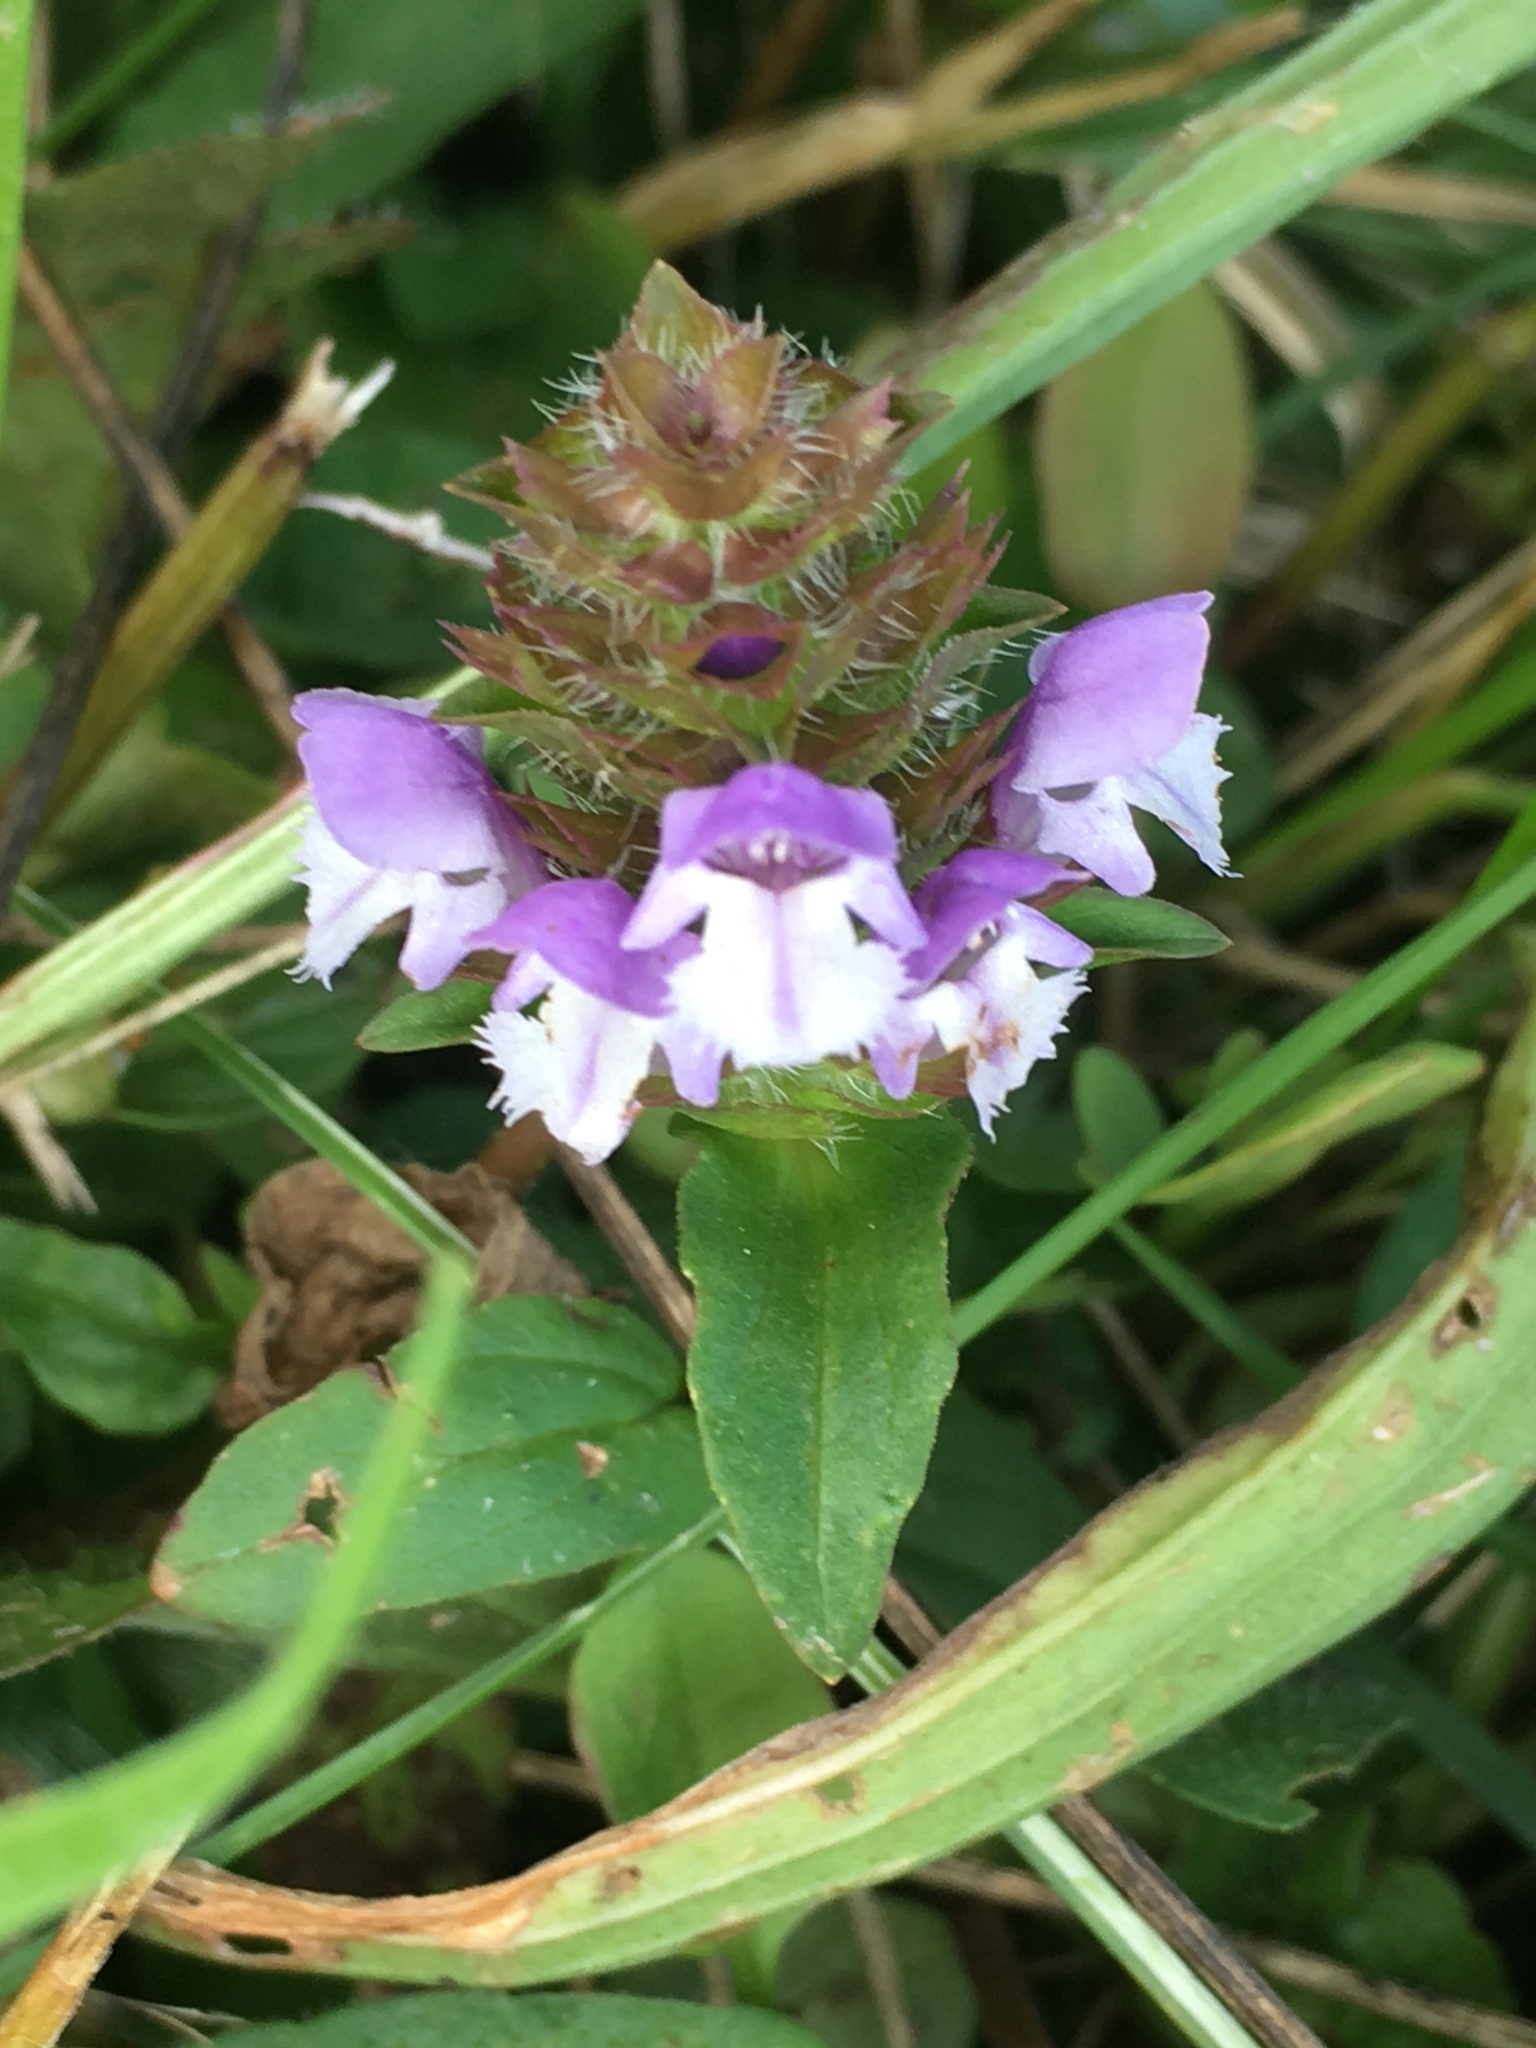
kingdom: Plantae
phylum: Tracheophyta
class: Magnoliopsida
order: Lamiales
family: Lamiaceae
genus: Prunella
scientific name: Prunella vulgaris
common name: Heal-all
